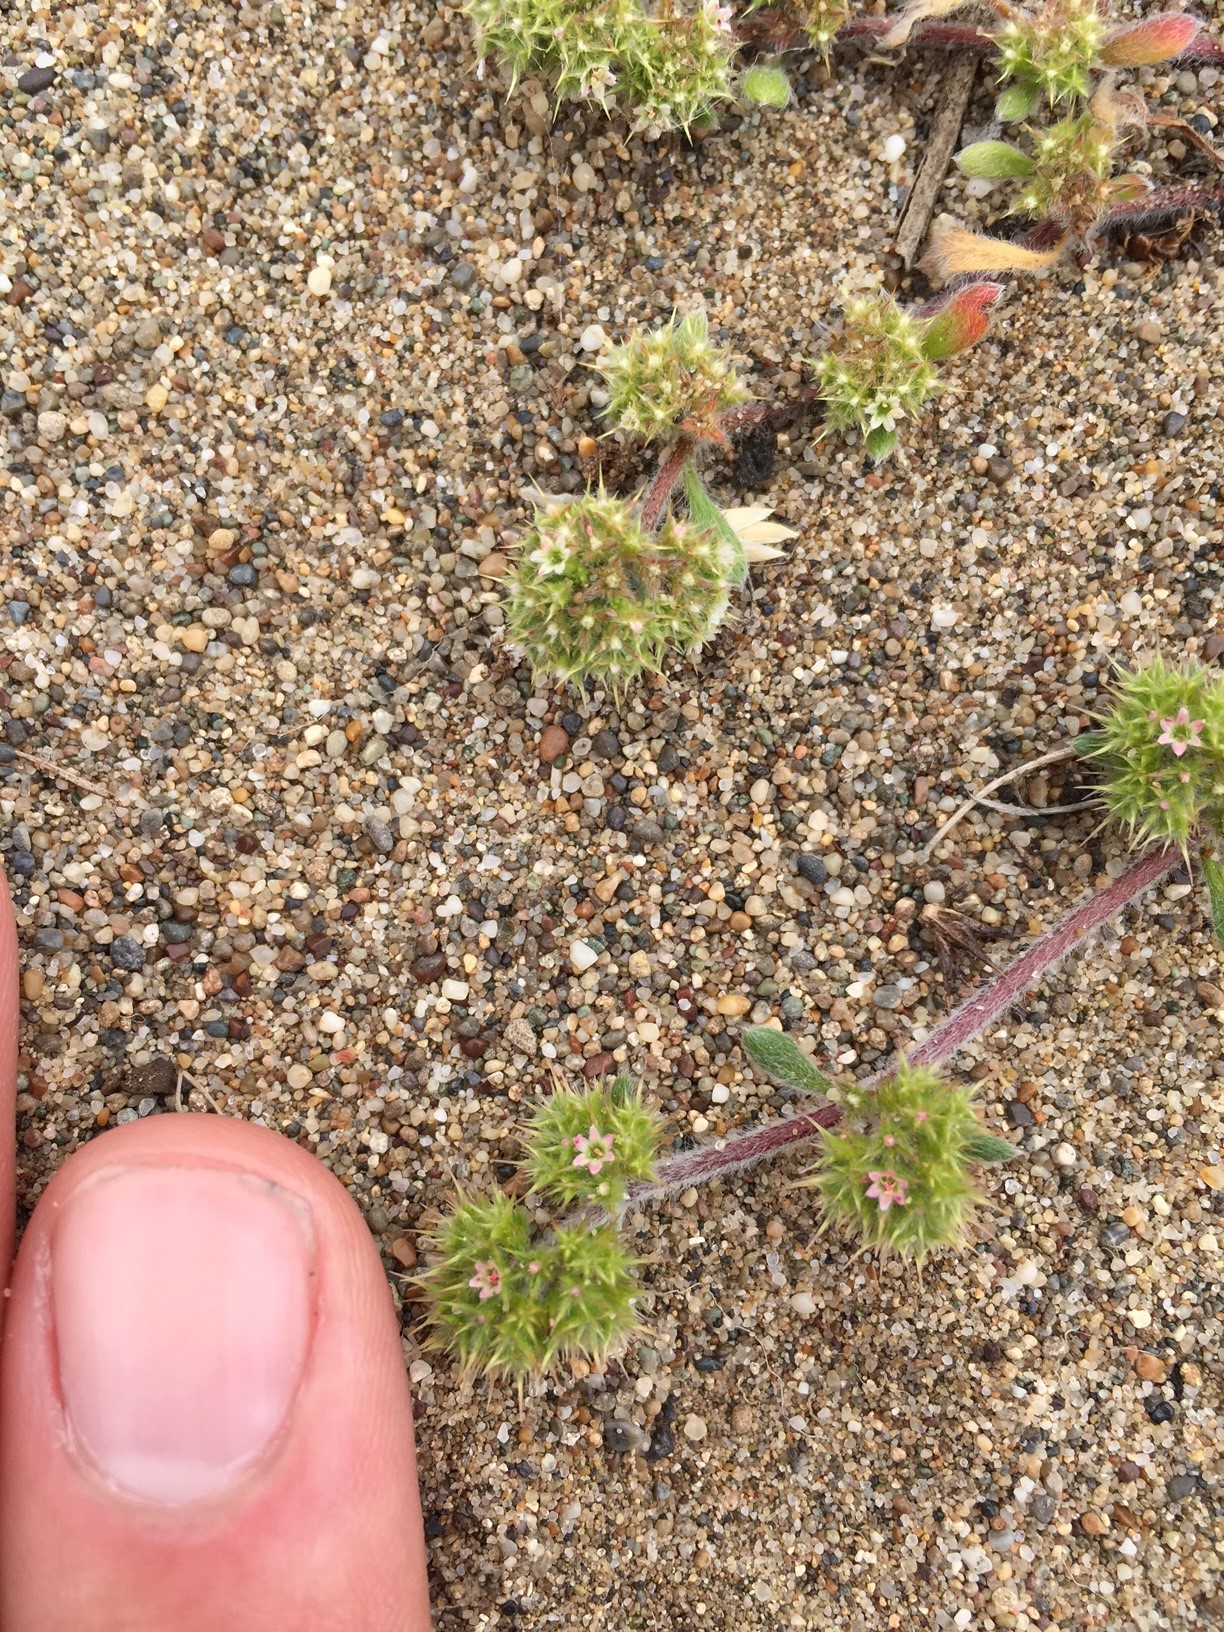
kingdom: Plantae
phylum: Tracheophyta
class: Magnoliopsida
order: Caryophyllales
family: Polygonaceae
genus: Chorizanthe
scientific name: Chorizanthe cuspidata
